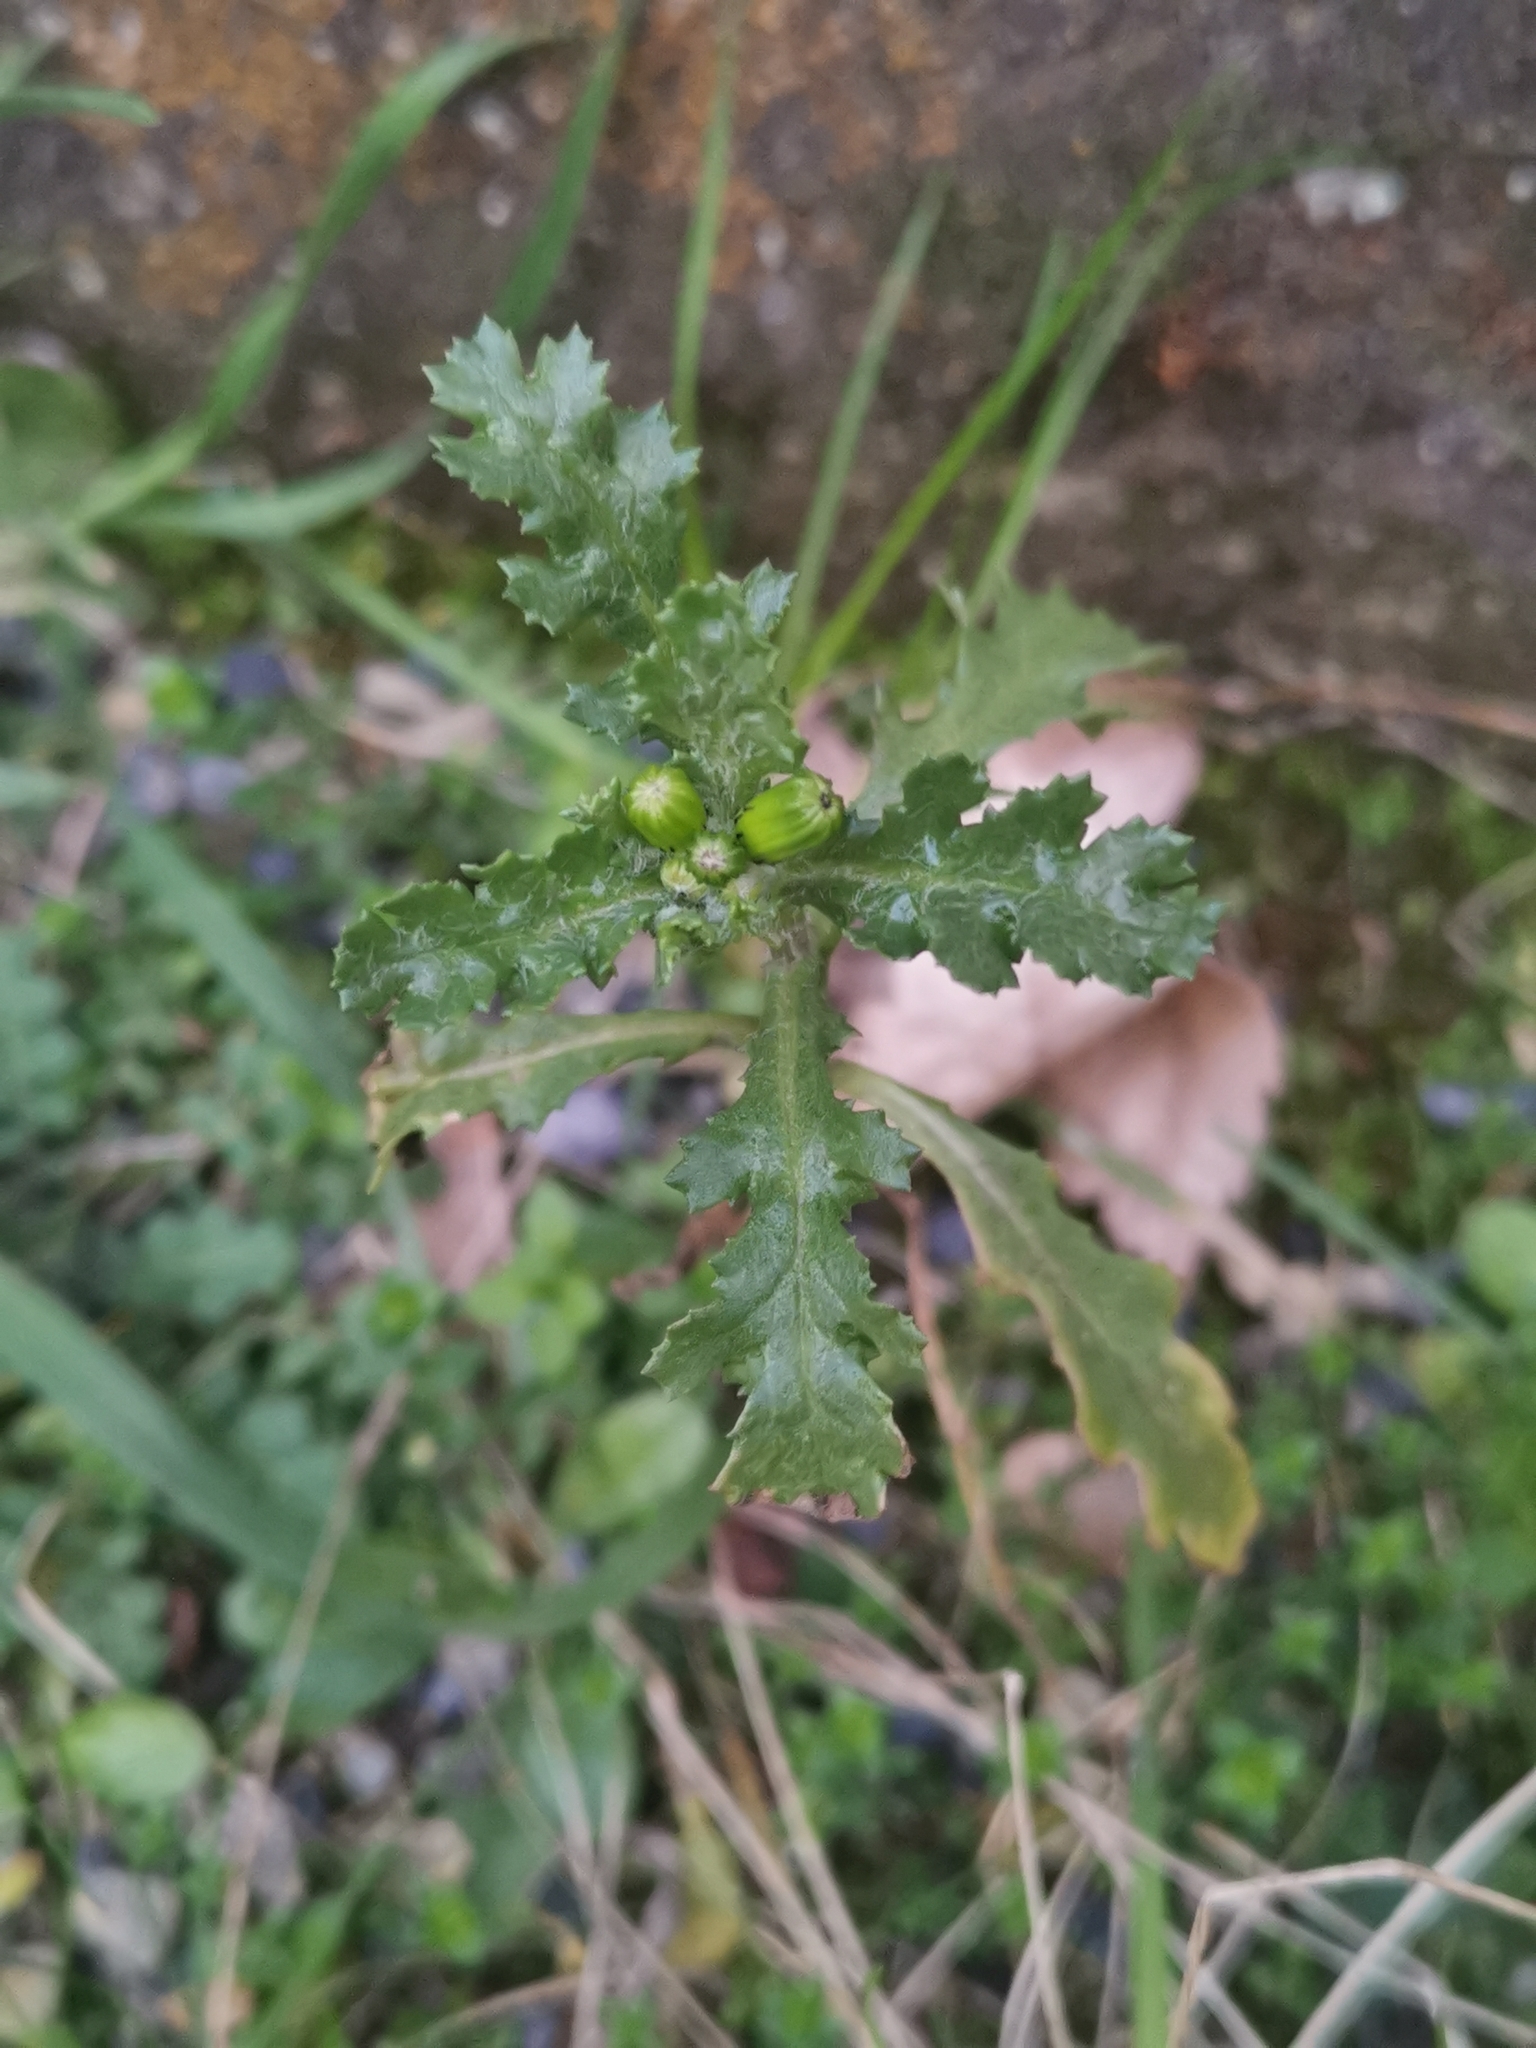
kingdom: Plantae
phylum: Tracheophyta
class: Magnoliopsida
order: Asterales
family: Asteraceae
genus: Senecio
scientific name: Senecio vulgaris
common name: Old-man-in-the-spring
